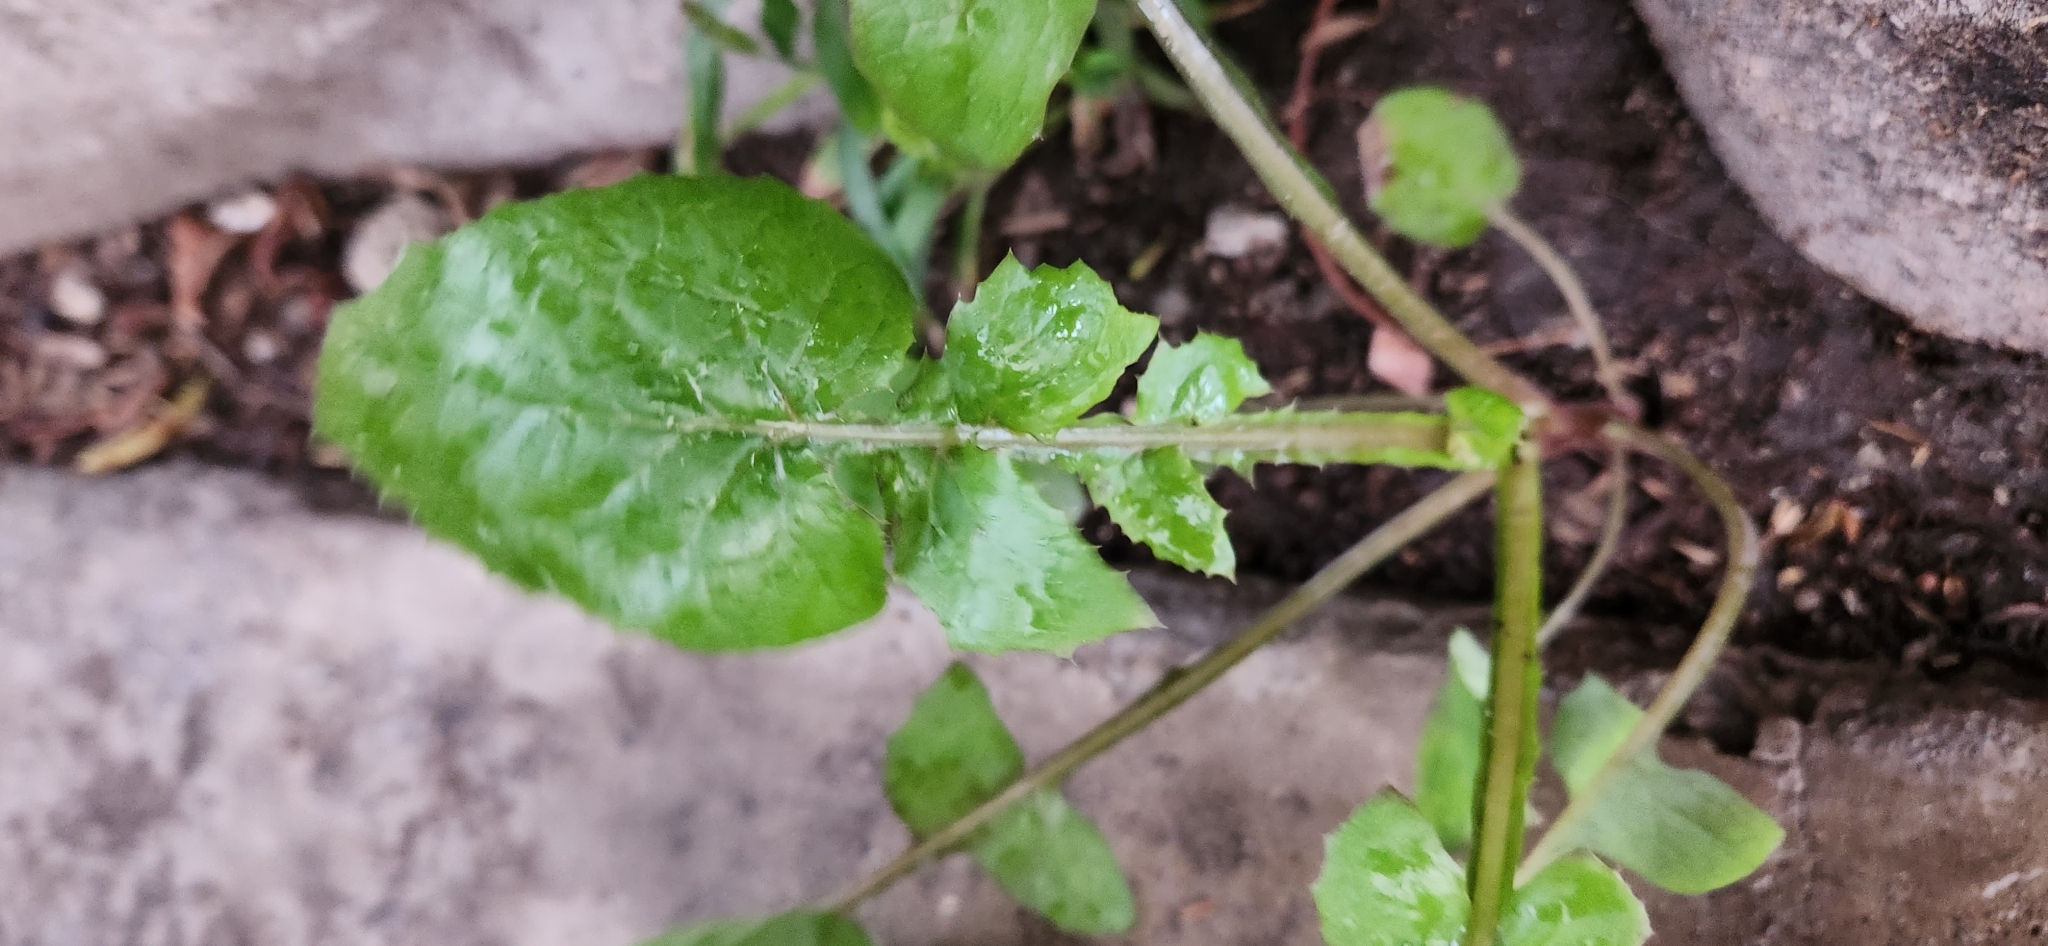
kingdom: Plantae
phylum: Tracheophyta
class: Magnoliopsida
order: Asterales
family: Asteraceae
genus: Sonchus
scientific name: Sonchus oleraceus
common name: Common sowthistle
